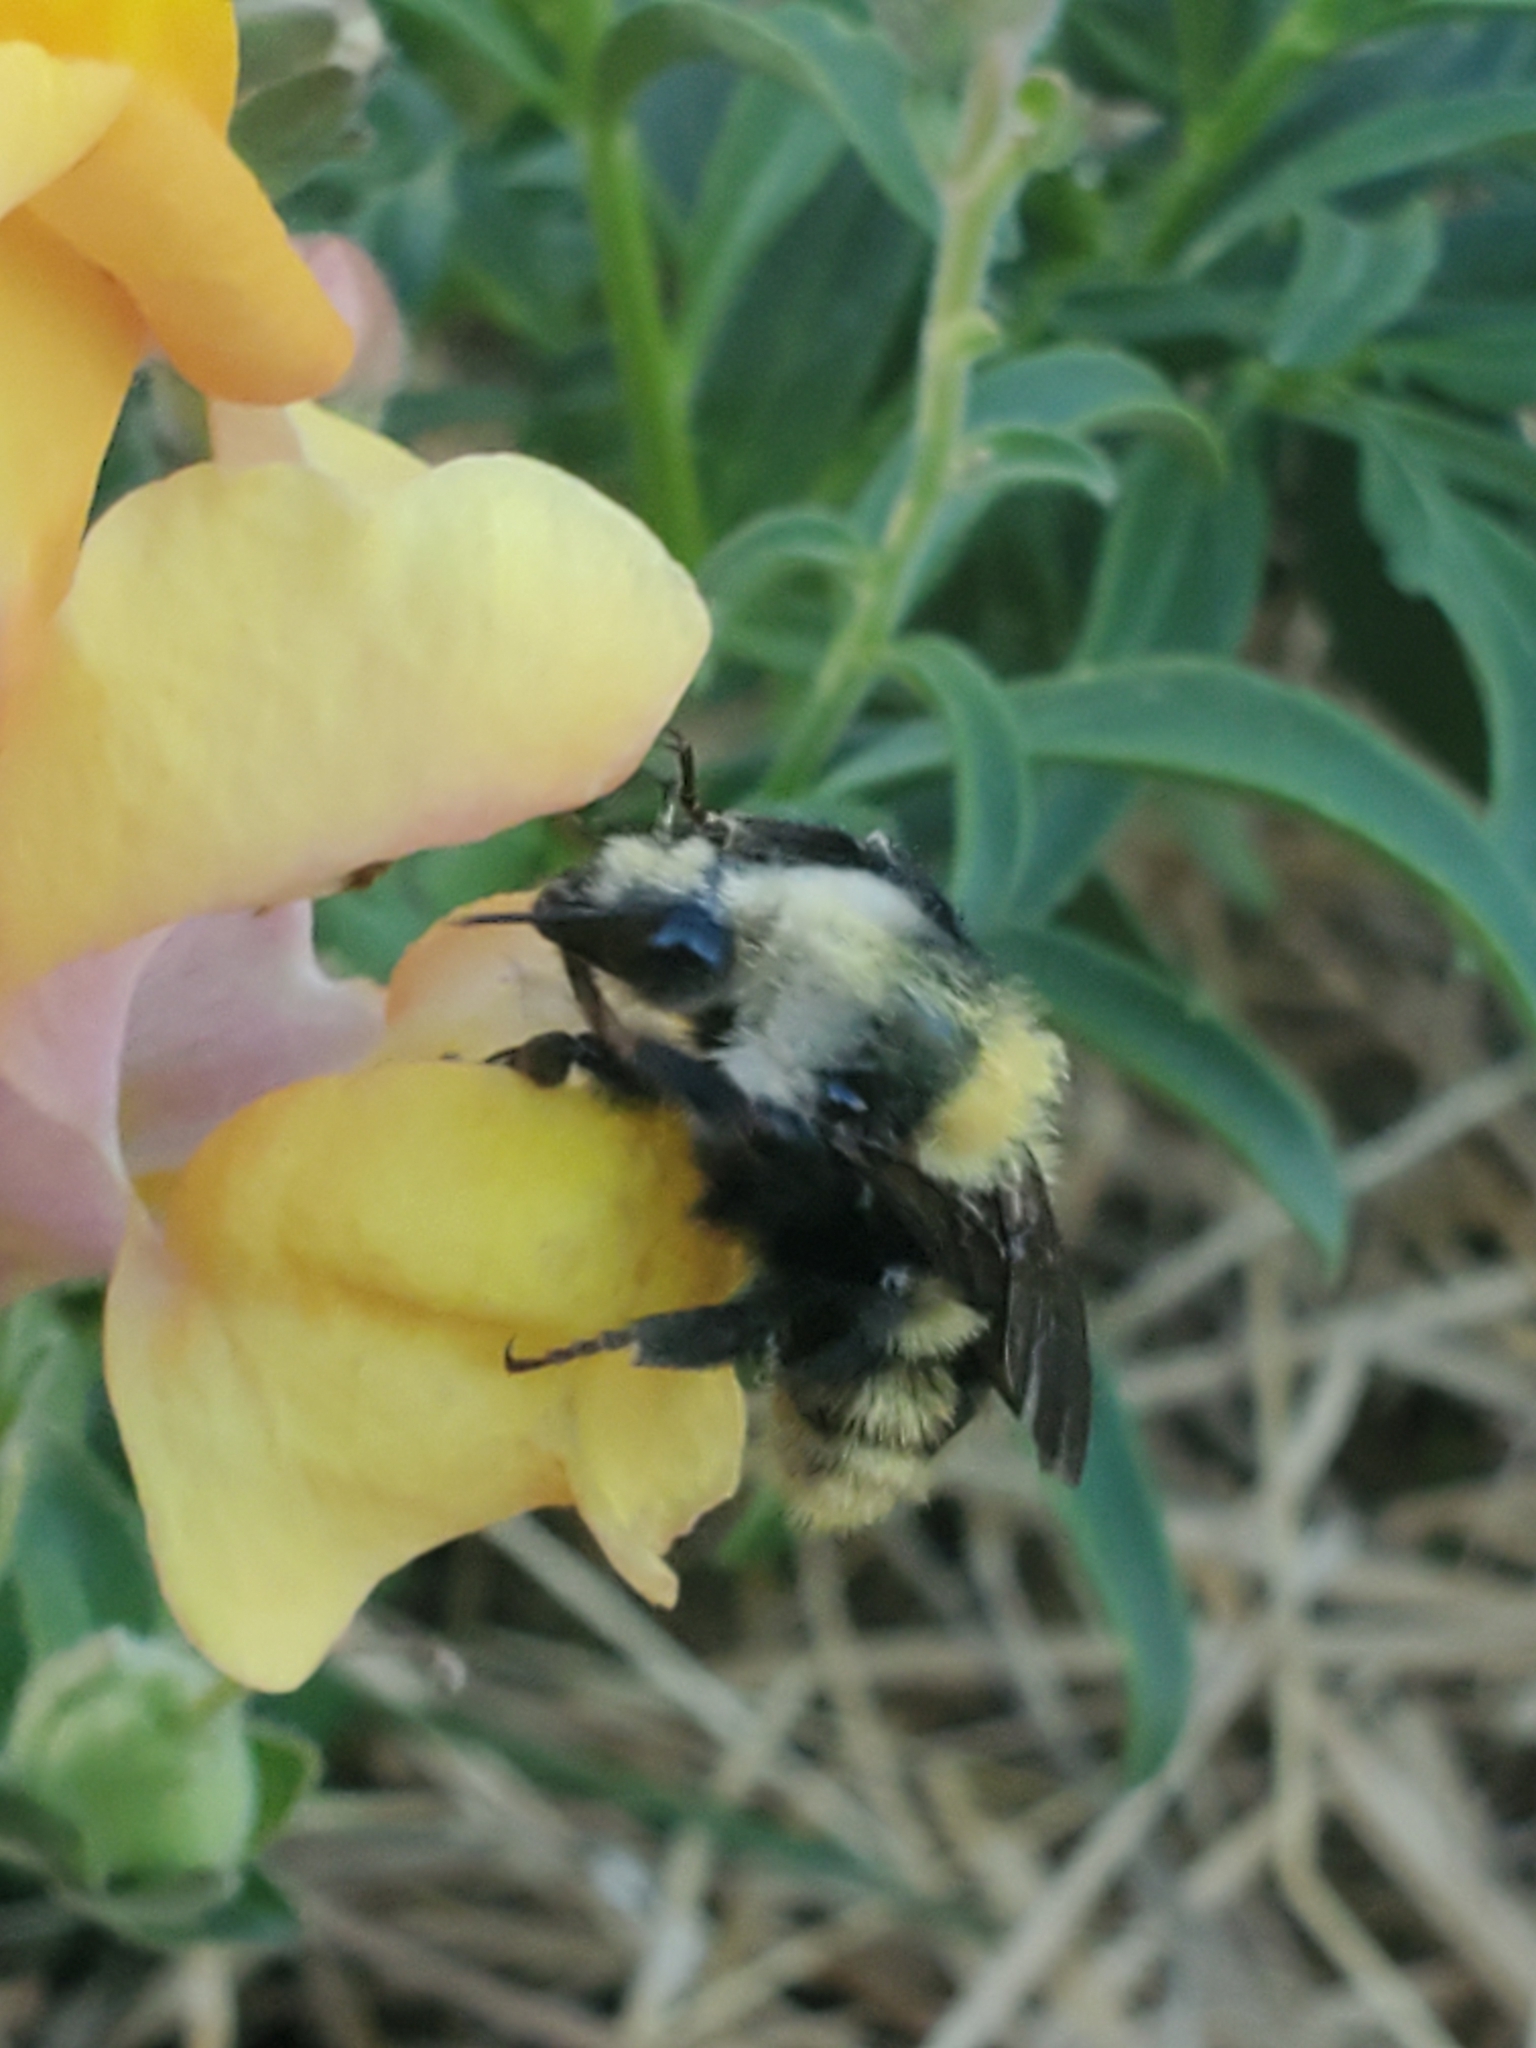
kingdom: Animalia
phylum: Arthropoda
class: Insecta
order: Hymenoptera
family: Apidae
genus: Bombus
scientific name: Bombus appositus
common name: White-shouldered bumble bee
